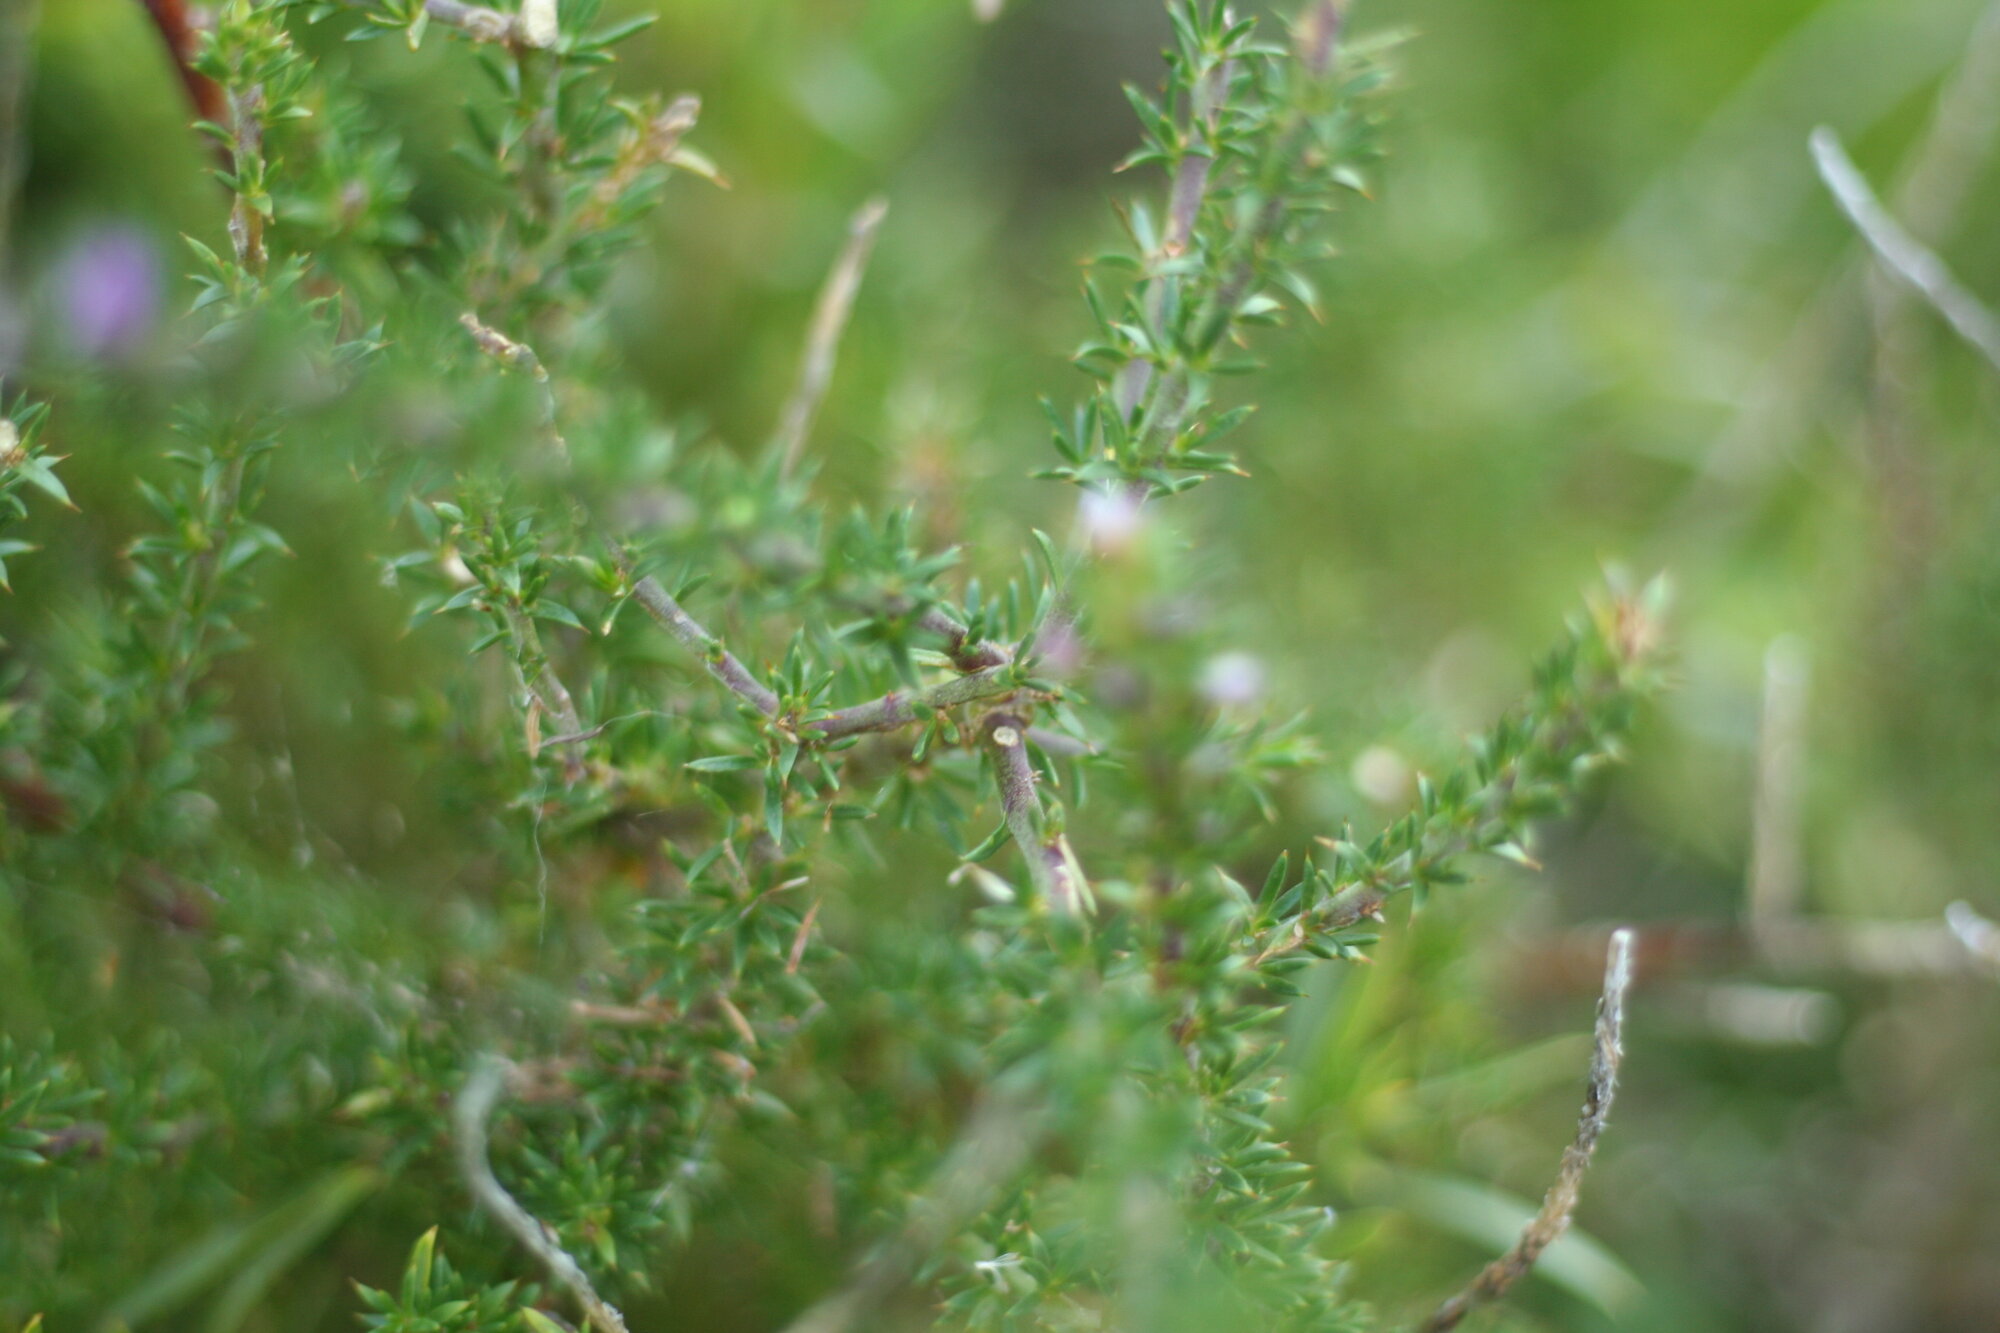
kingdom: Plantae
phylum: Tracheophyta
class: Magnoliopsida
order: Fabales
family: Polygalaceae
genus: Muraltia
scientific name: Muraltia heisteria
